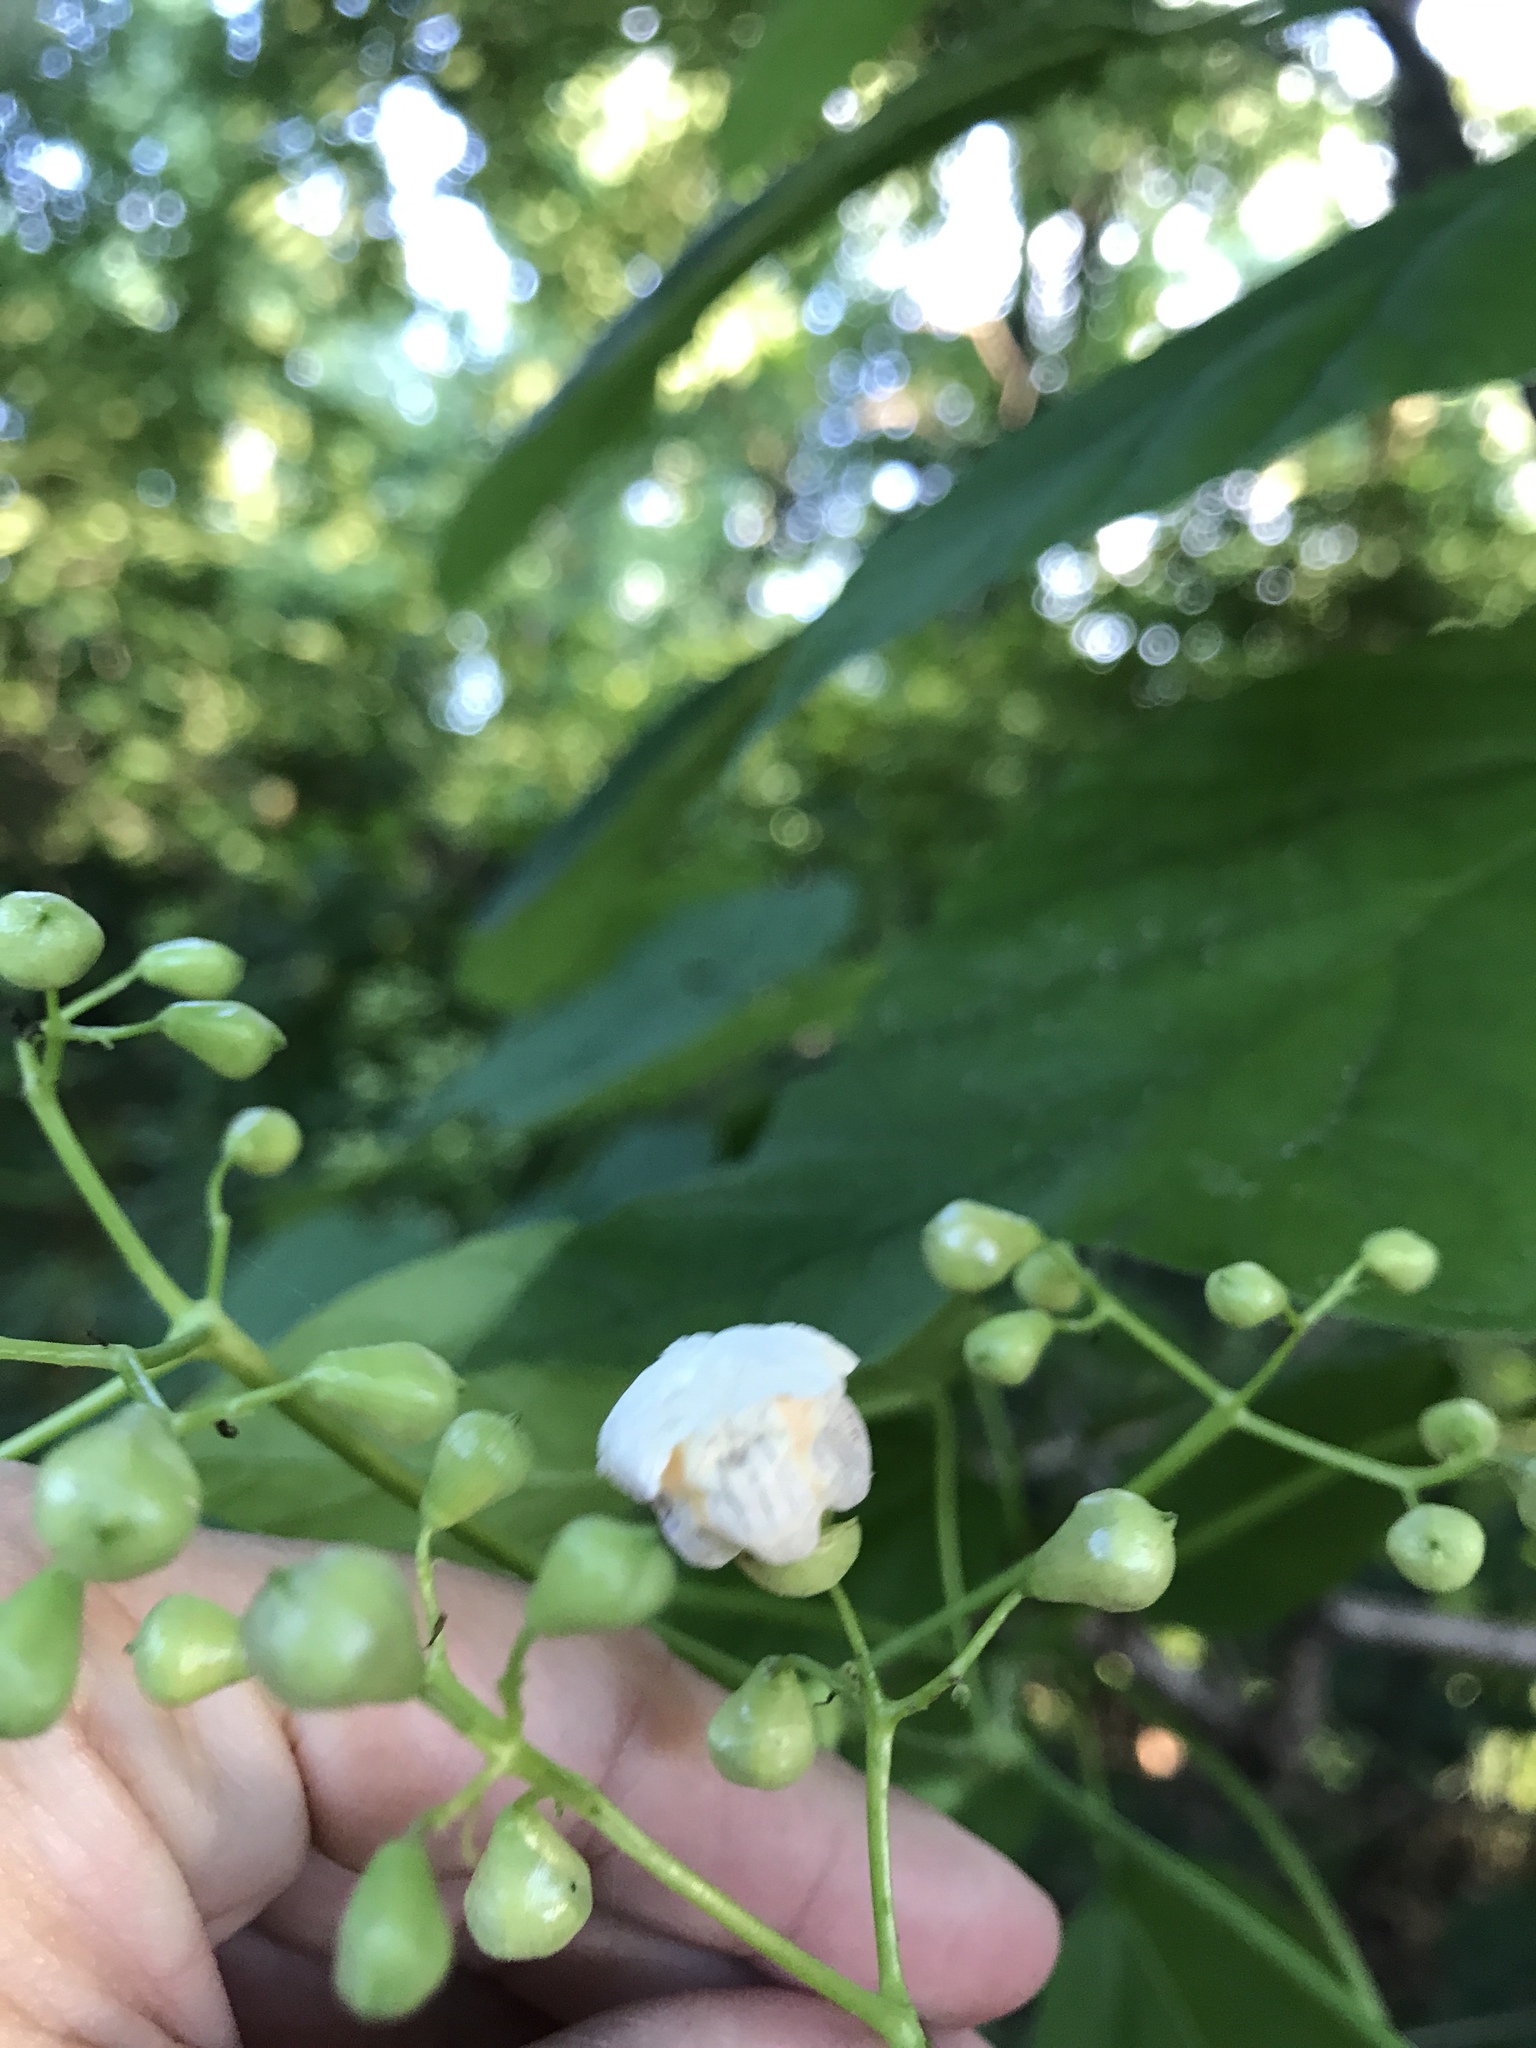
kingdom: Plantae
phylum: Tracheophyta
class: Magnoliopsida
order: Lamiales
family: Bignoniaceae
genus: Catalpa
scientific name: Catalpa speciosa
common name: Northern catalpa
